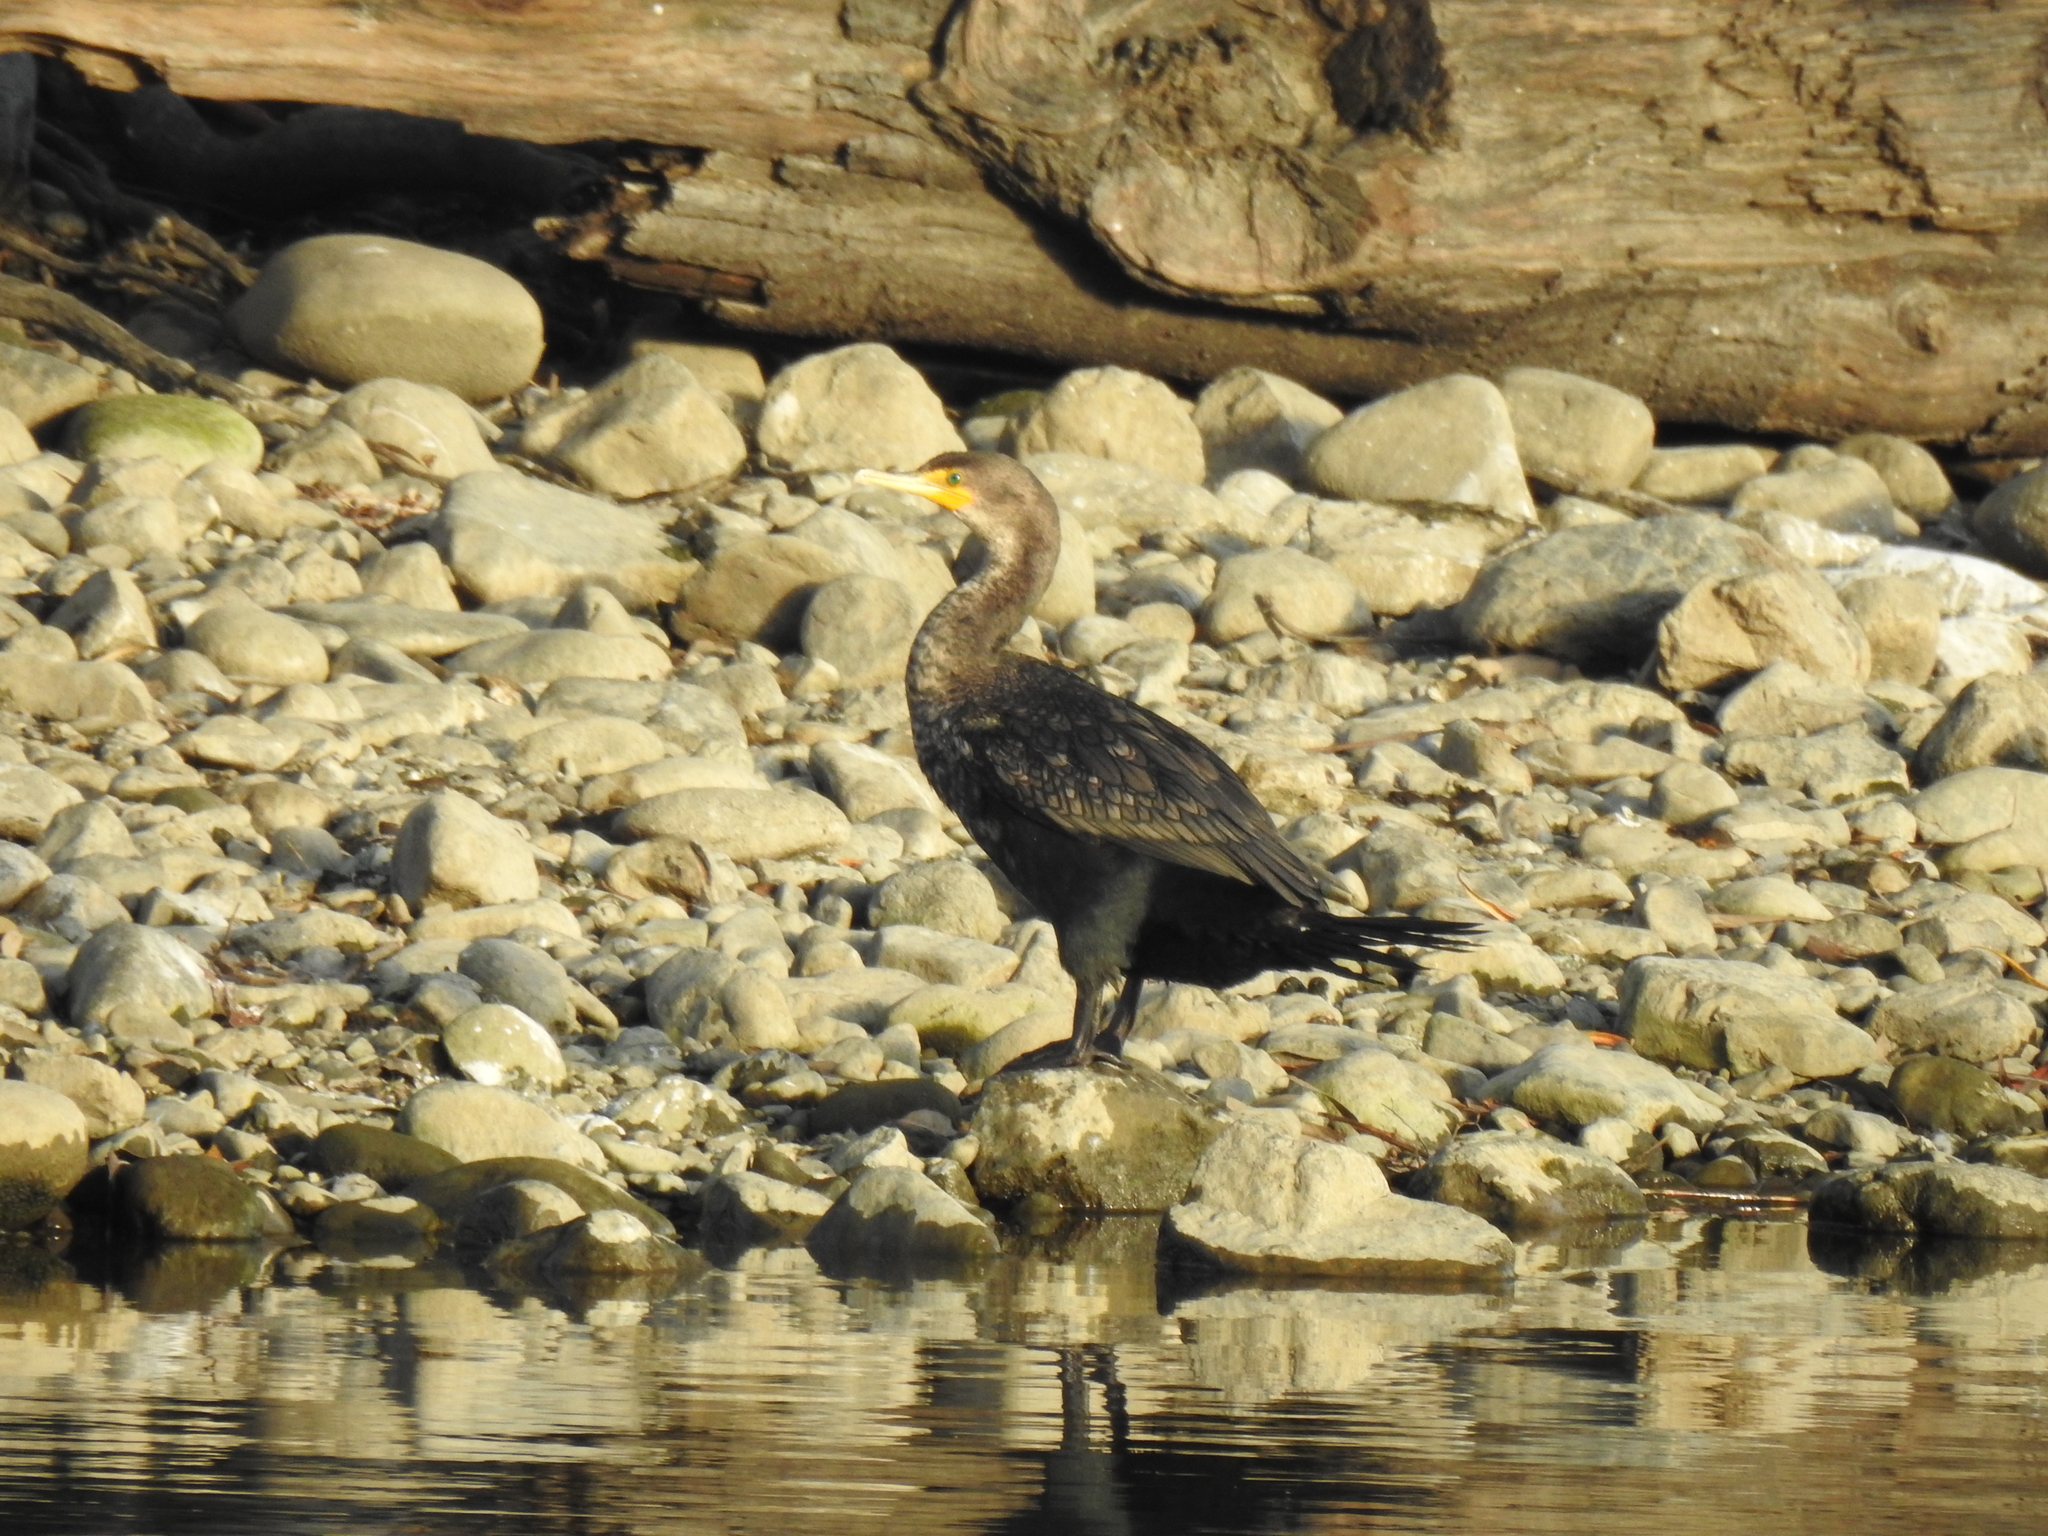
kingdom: Animalia
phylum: Chordata
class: Aves
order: Suliformes
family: Phalacrocoracidae
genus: Phalacrocorax
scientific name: Phalacrocorax auritus
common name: Double-crested cormorant
